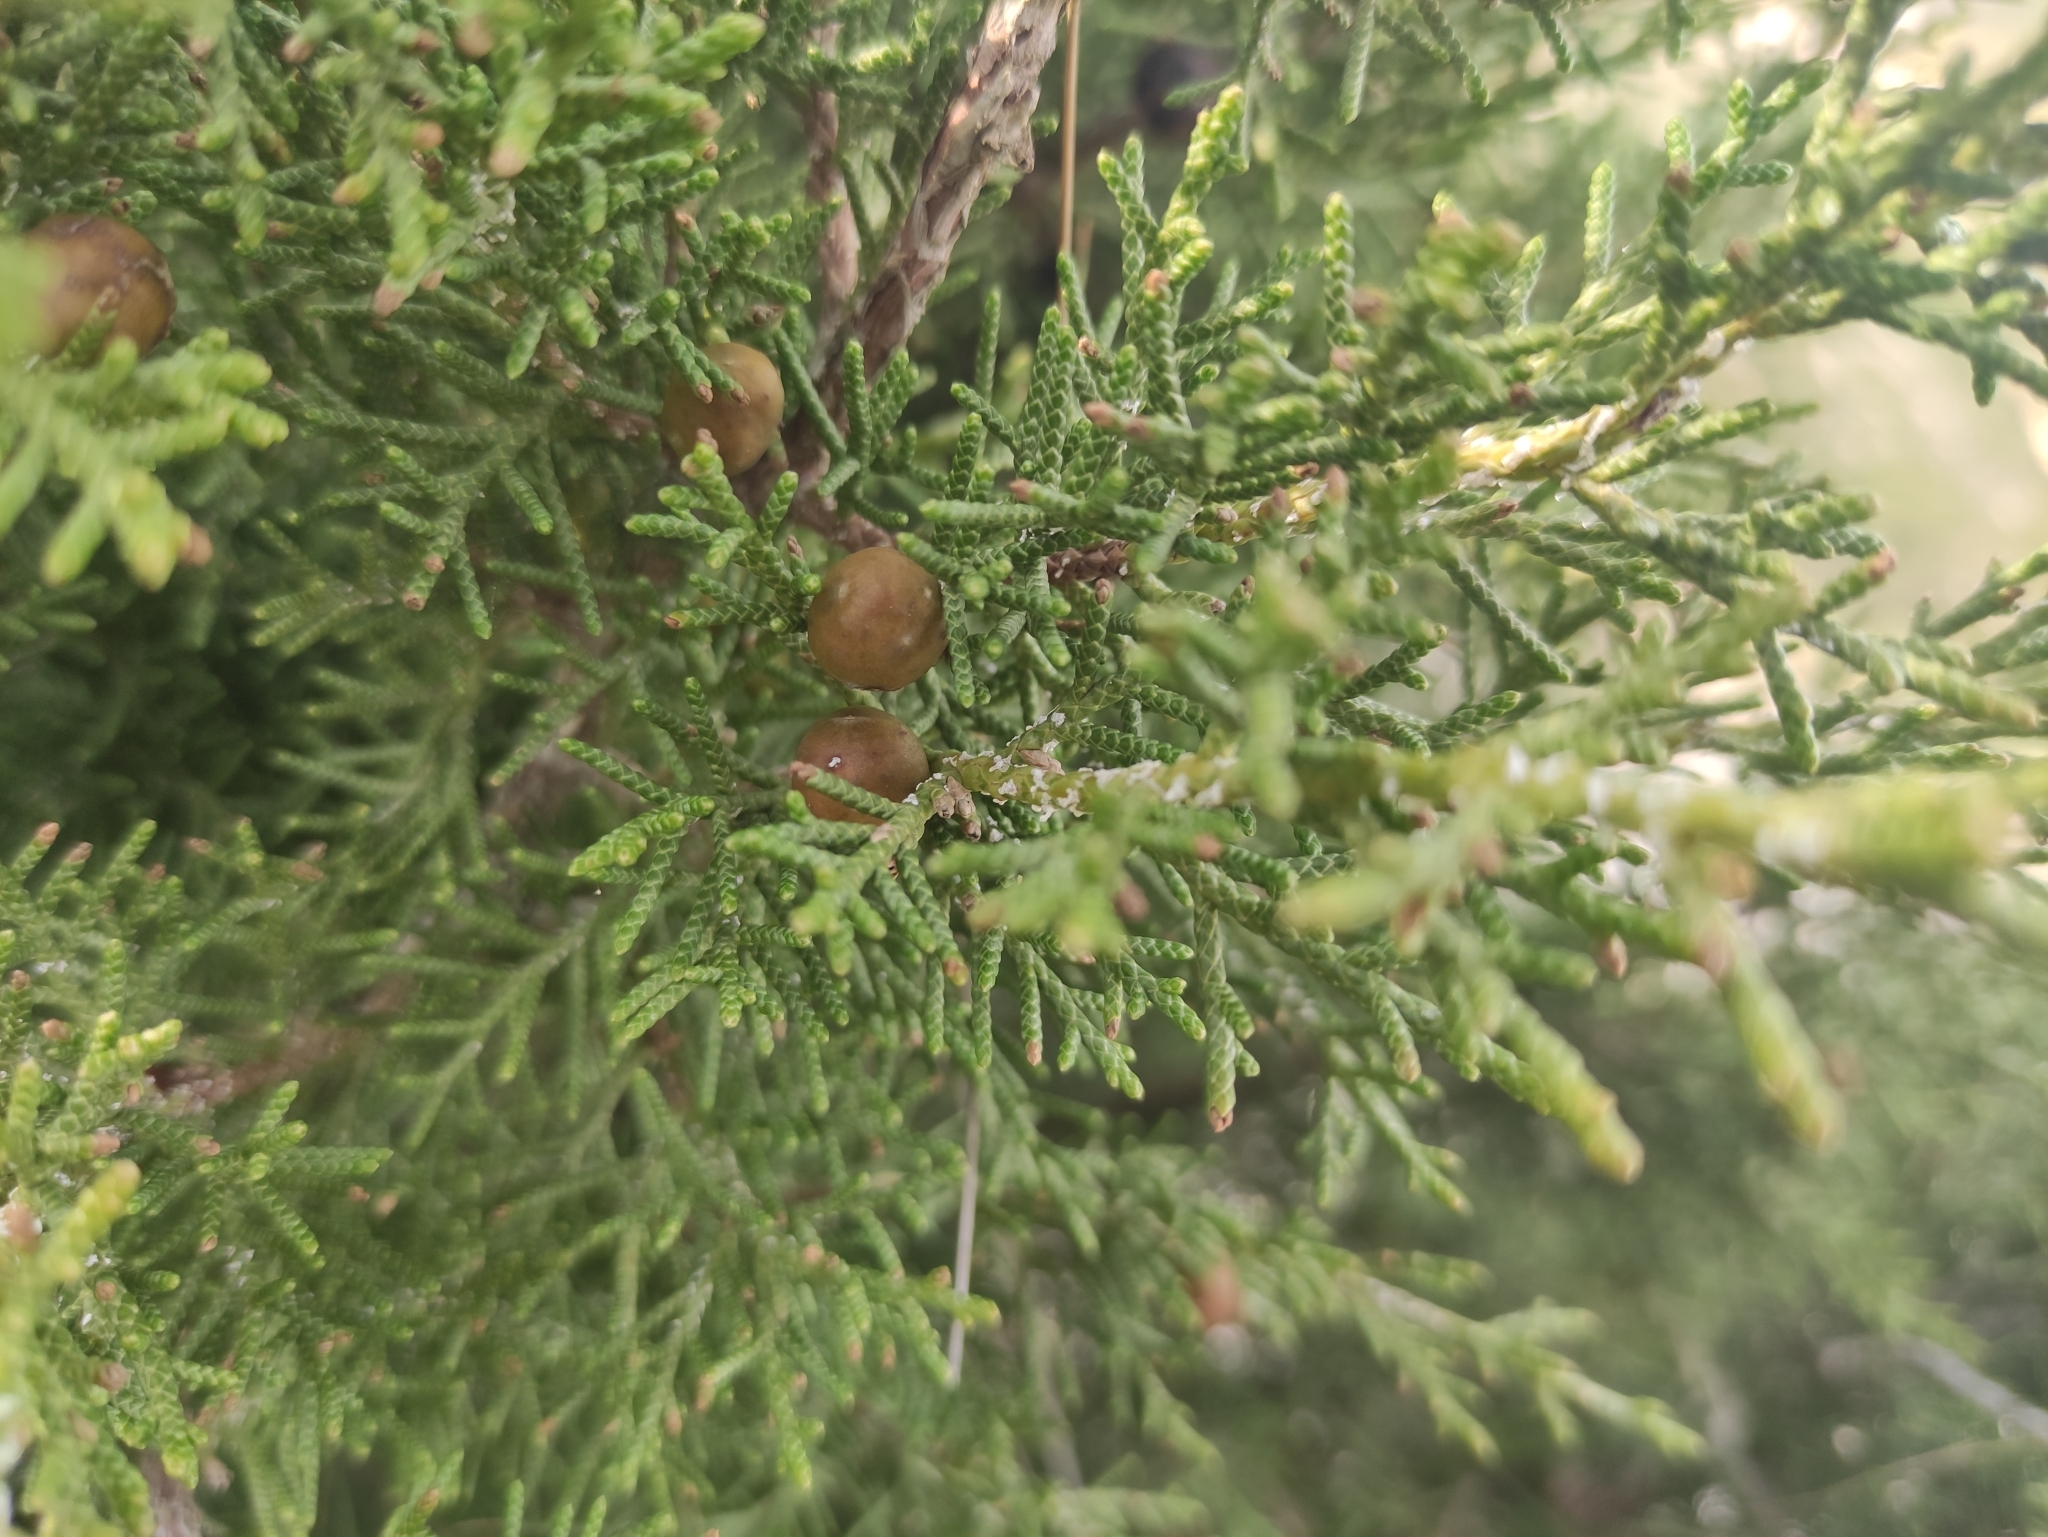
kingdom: Plantae
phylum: Tracheophyta
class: Pinopsida
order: Pinales
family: Cupressaceae
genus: Juniperus
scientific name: Juniperus phoenicea
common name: Phoenician juniper
